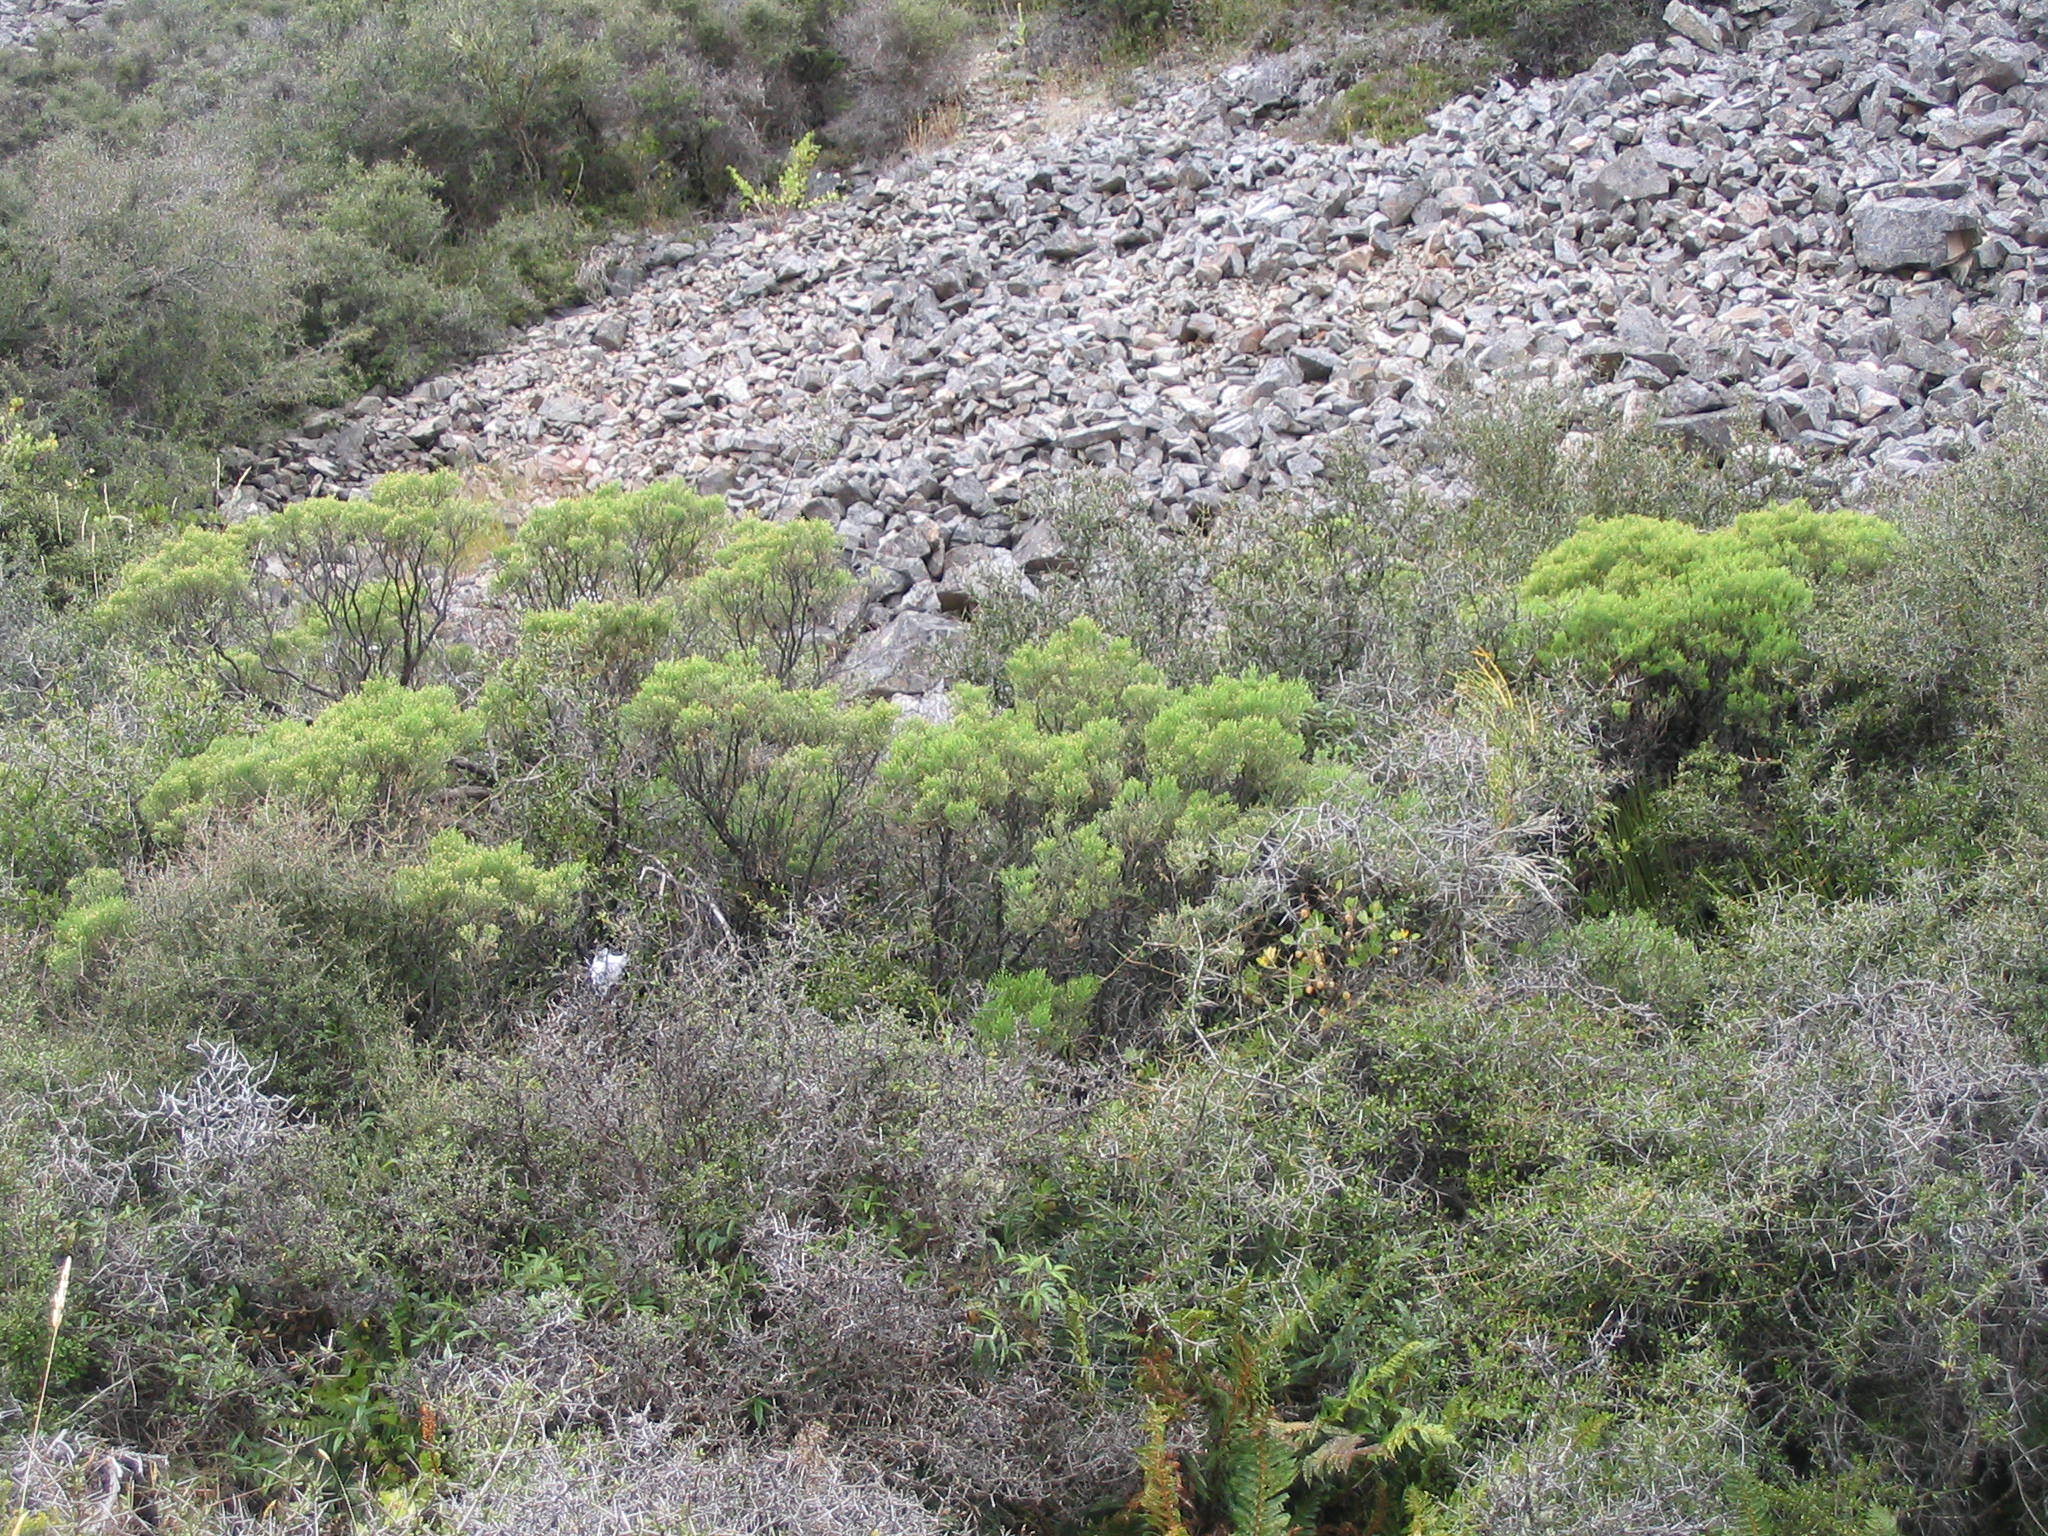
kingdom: Plantae
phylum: Tracheophyta
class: Magnoliopsida
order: Lamiales
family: Plantaginaceae
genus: Veronica
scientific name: Veronica cupressoides
